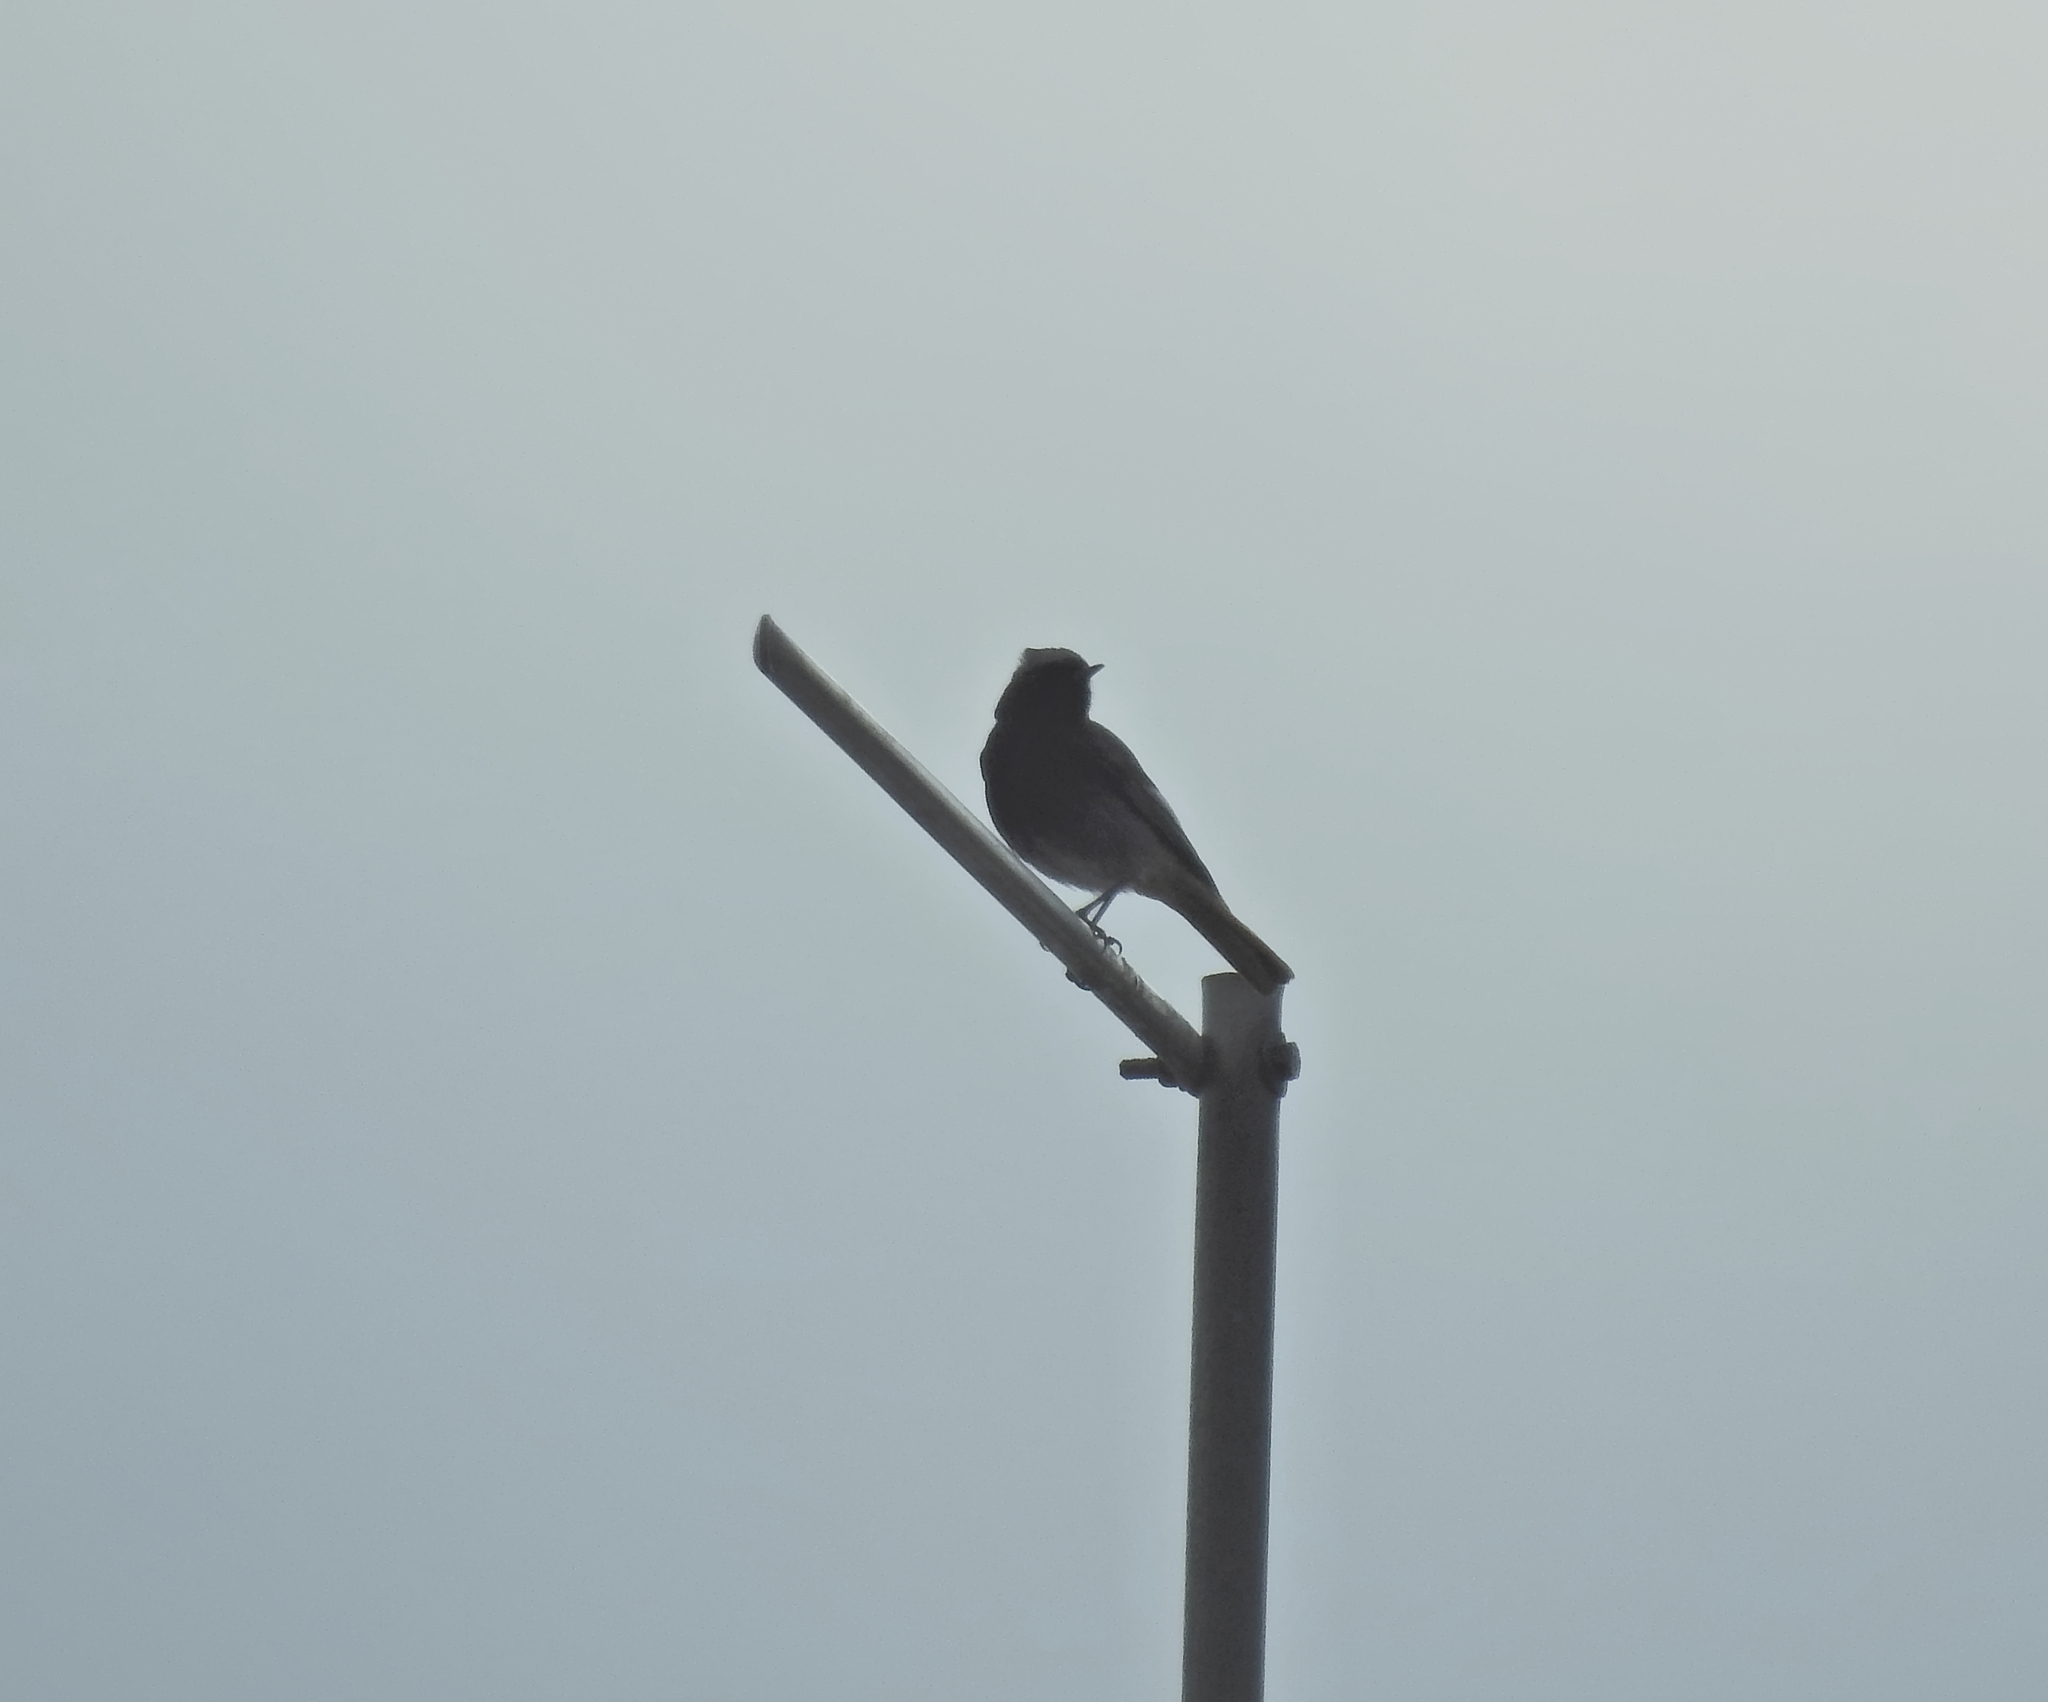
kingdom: Animalia
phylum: Chordata
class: Aves
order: Passeriformes
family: Muscicapidae
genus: Phoenicurus
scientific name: Phoenicurus ochruros
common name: Black redstart
